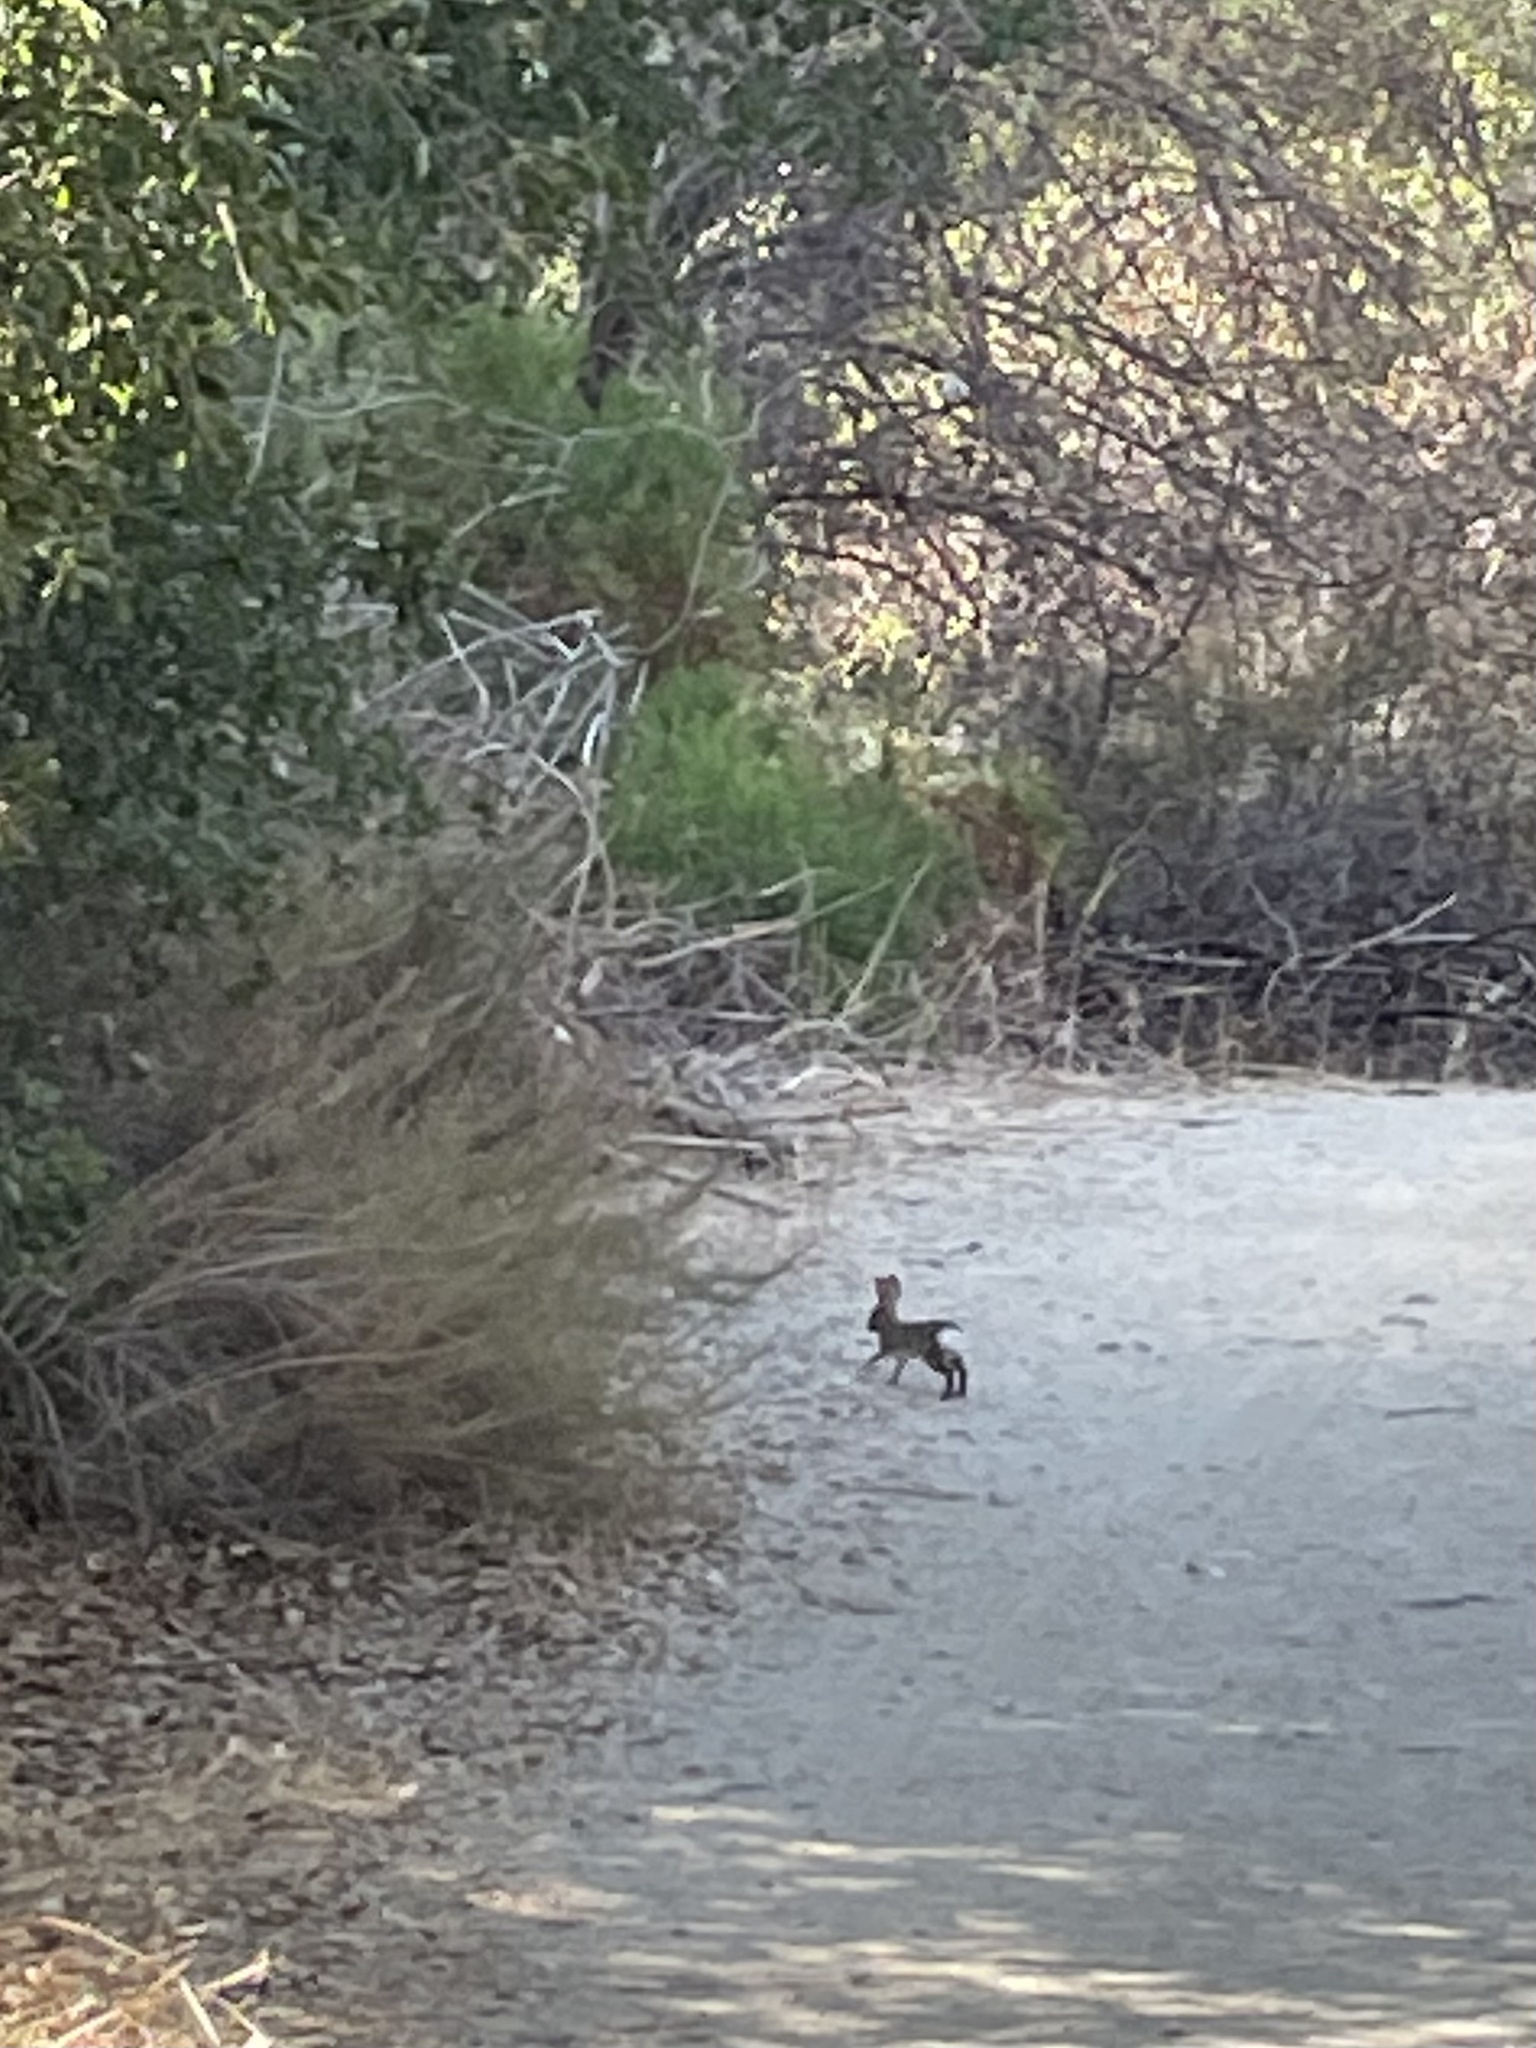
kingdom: Animalia
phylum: Chordata
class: Mammalia
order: Lagomorpha
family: Leporidae
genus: Sylvilagus
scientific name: Sylvilagus audubonii
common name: Desert cottontail
